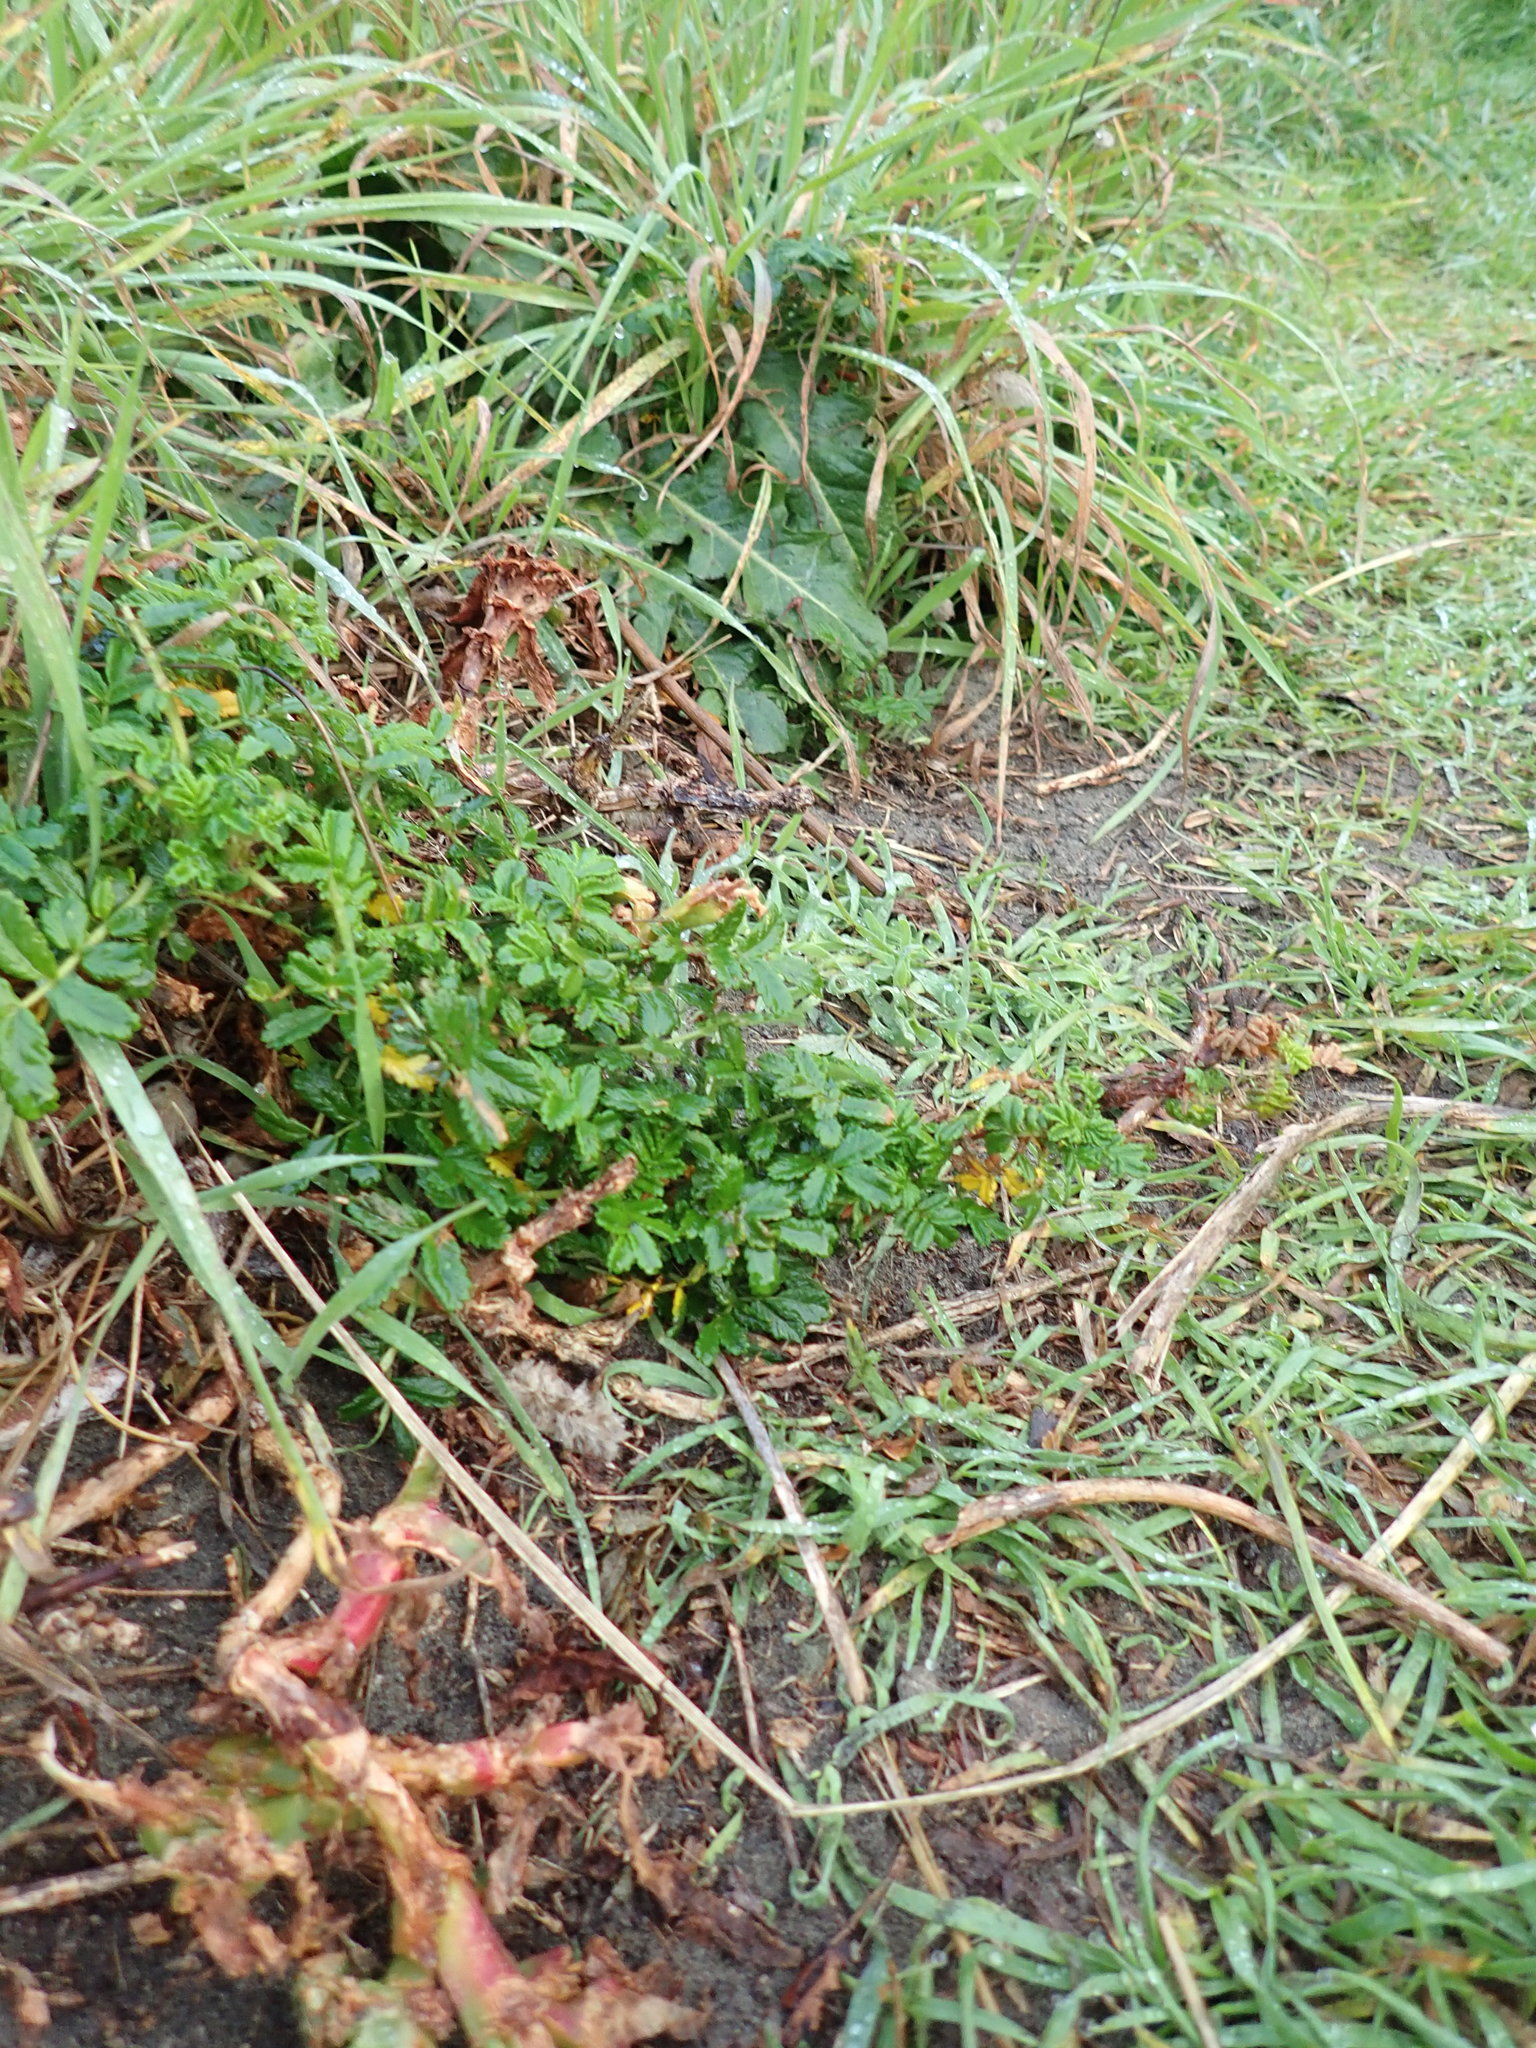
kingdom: Plantae
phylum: Tracheophyta
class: Magnoliopsida
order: Rosales
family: Rosaceae
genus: Acaena
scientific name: Acaena novae-zelandiae
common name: Pirri-pirri-bur
